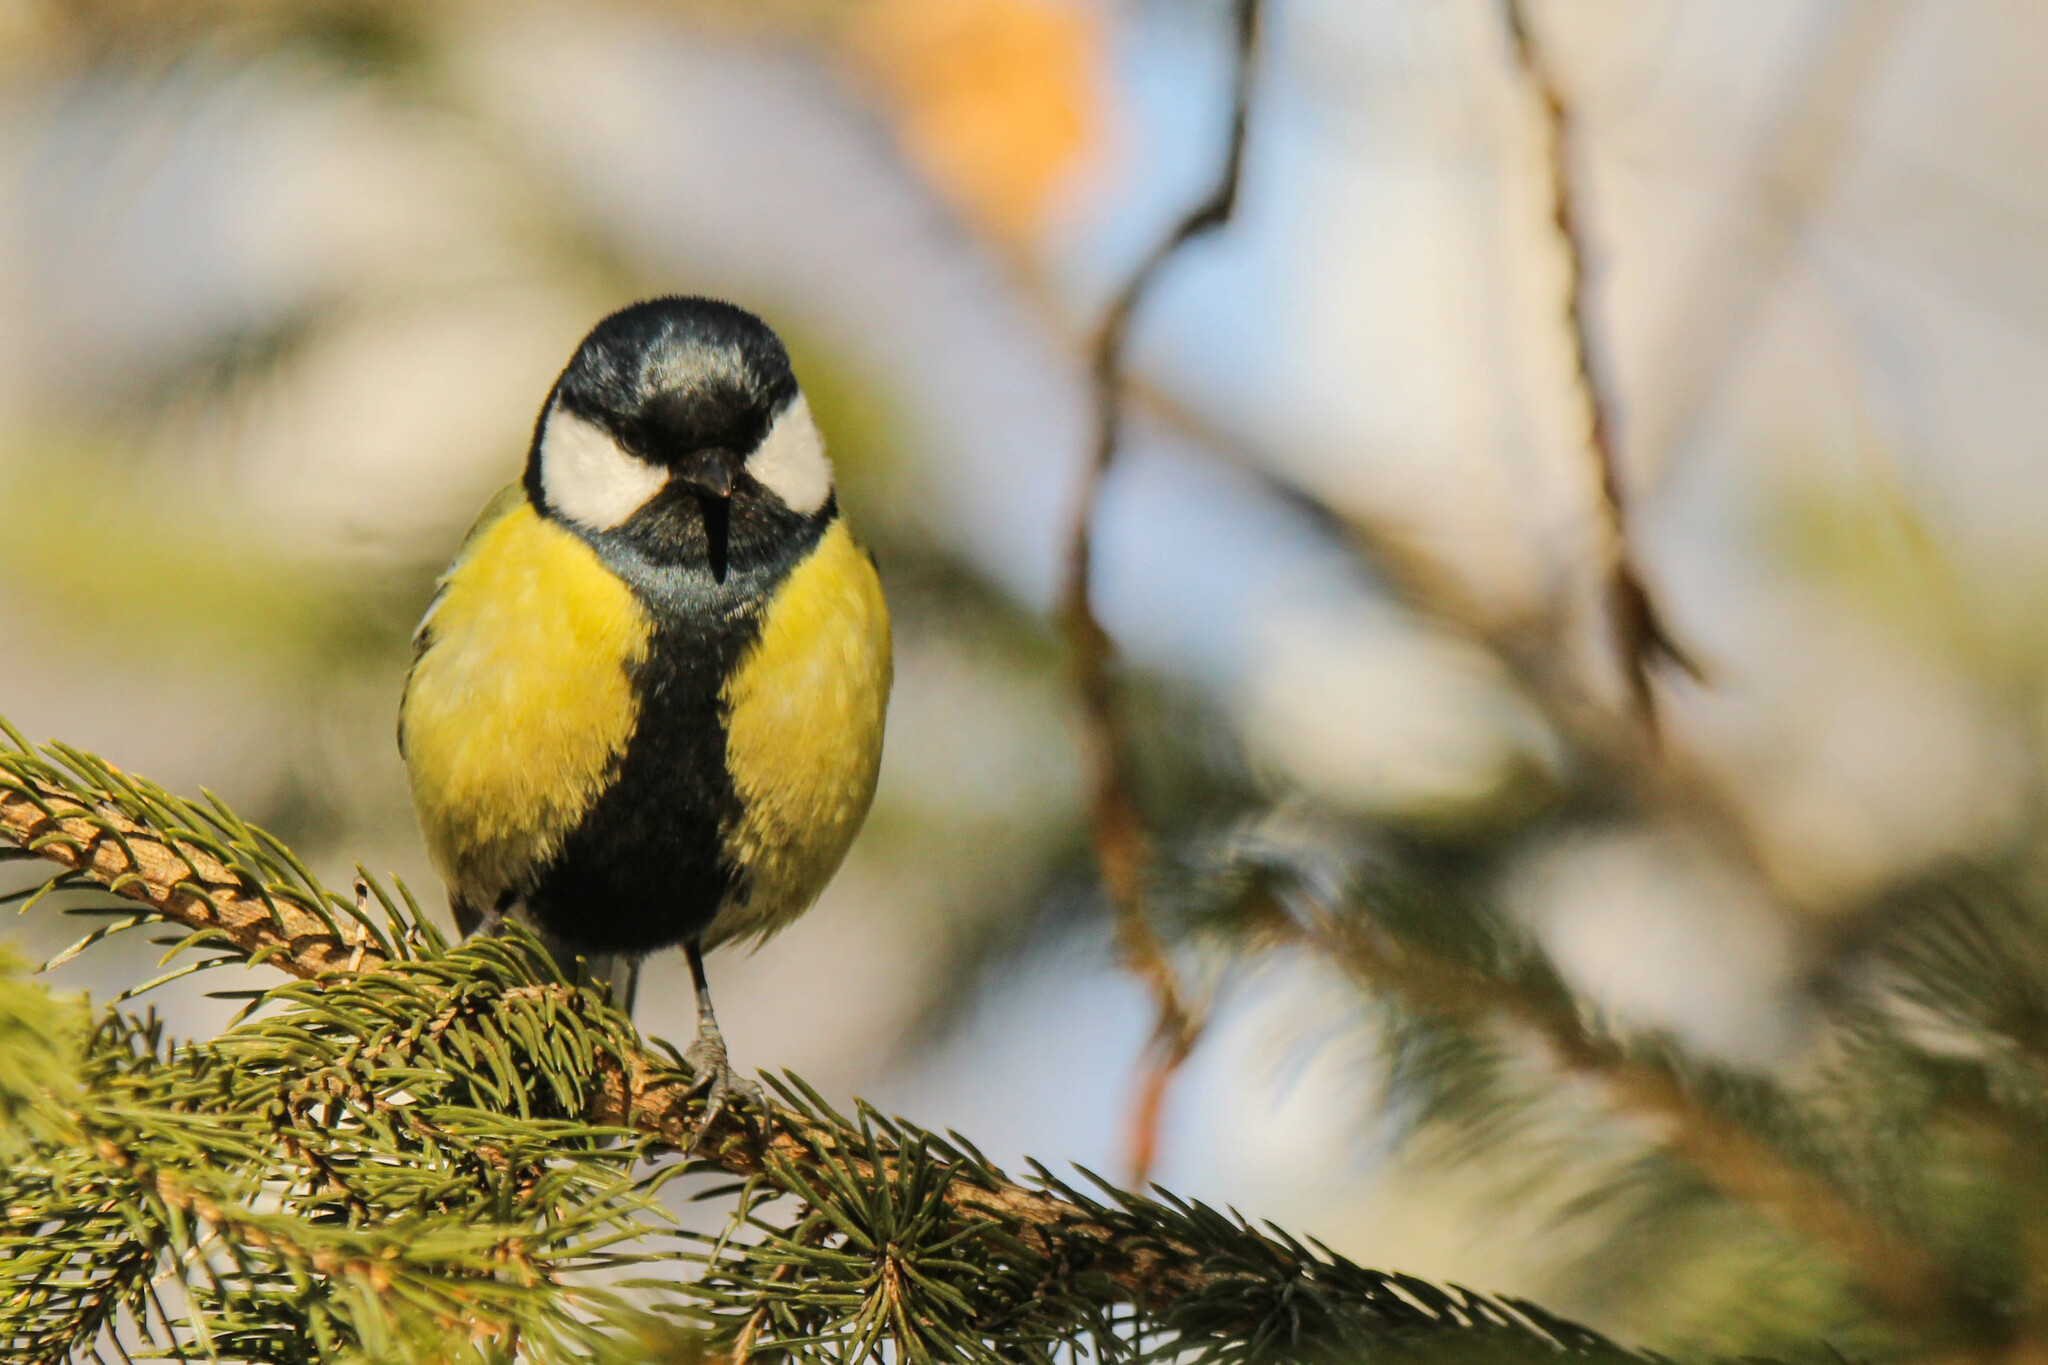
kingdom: Animalia
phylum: Chordata
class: Aves
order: Passeriformes
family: Paridae
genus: Parus
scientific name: Parus major
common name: Great tit
